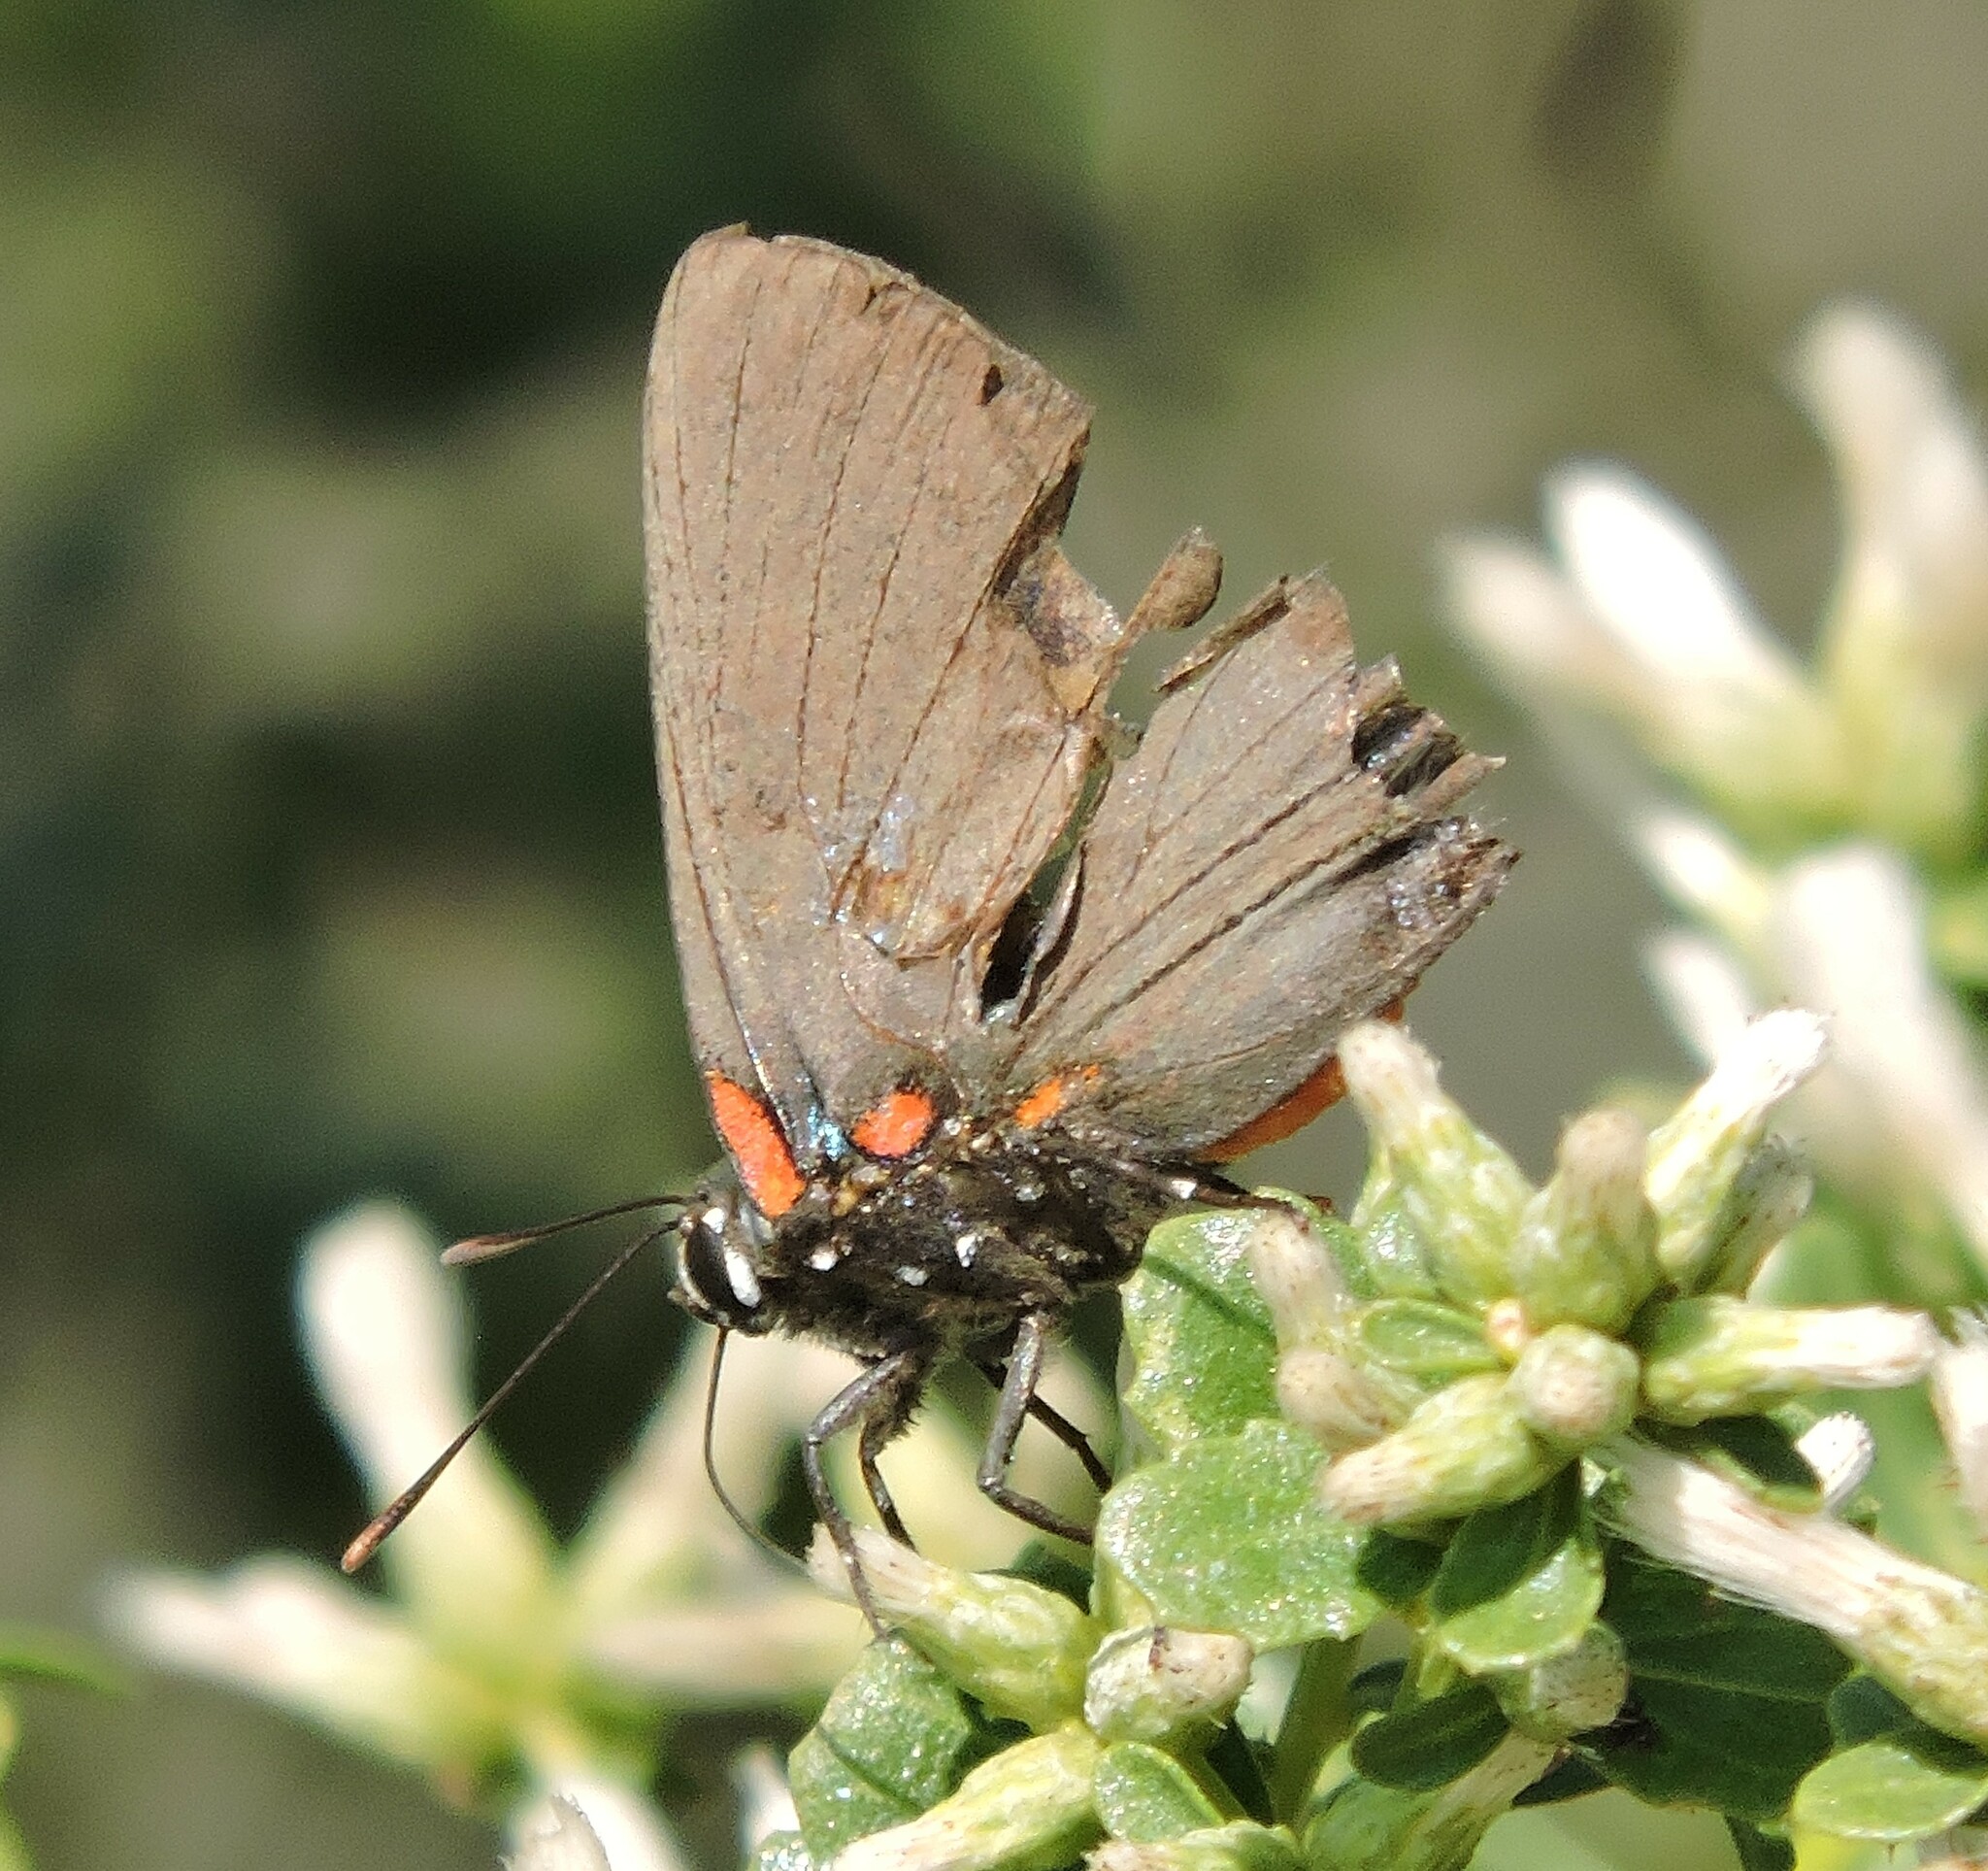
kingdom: Animalia
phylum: Arthropoda
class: Insecta
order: Lepidoptera
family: Lycaenidae
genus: Atlides
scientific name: Atlides halesus
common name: Great purple hairstreak
